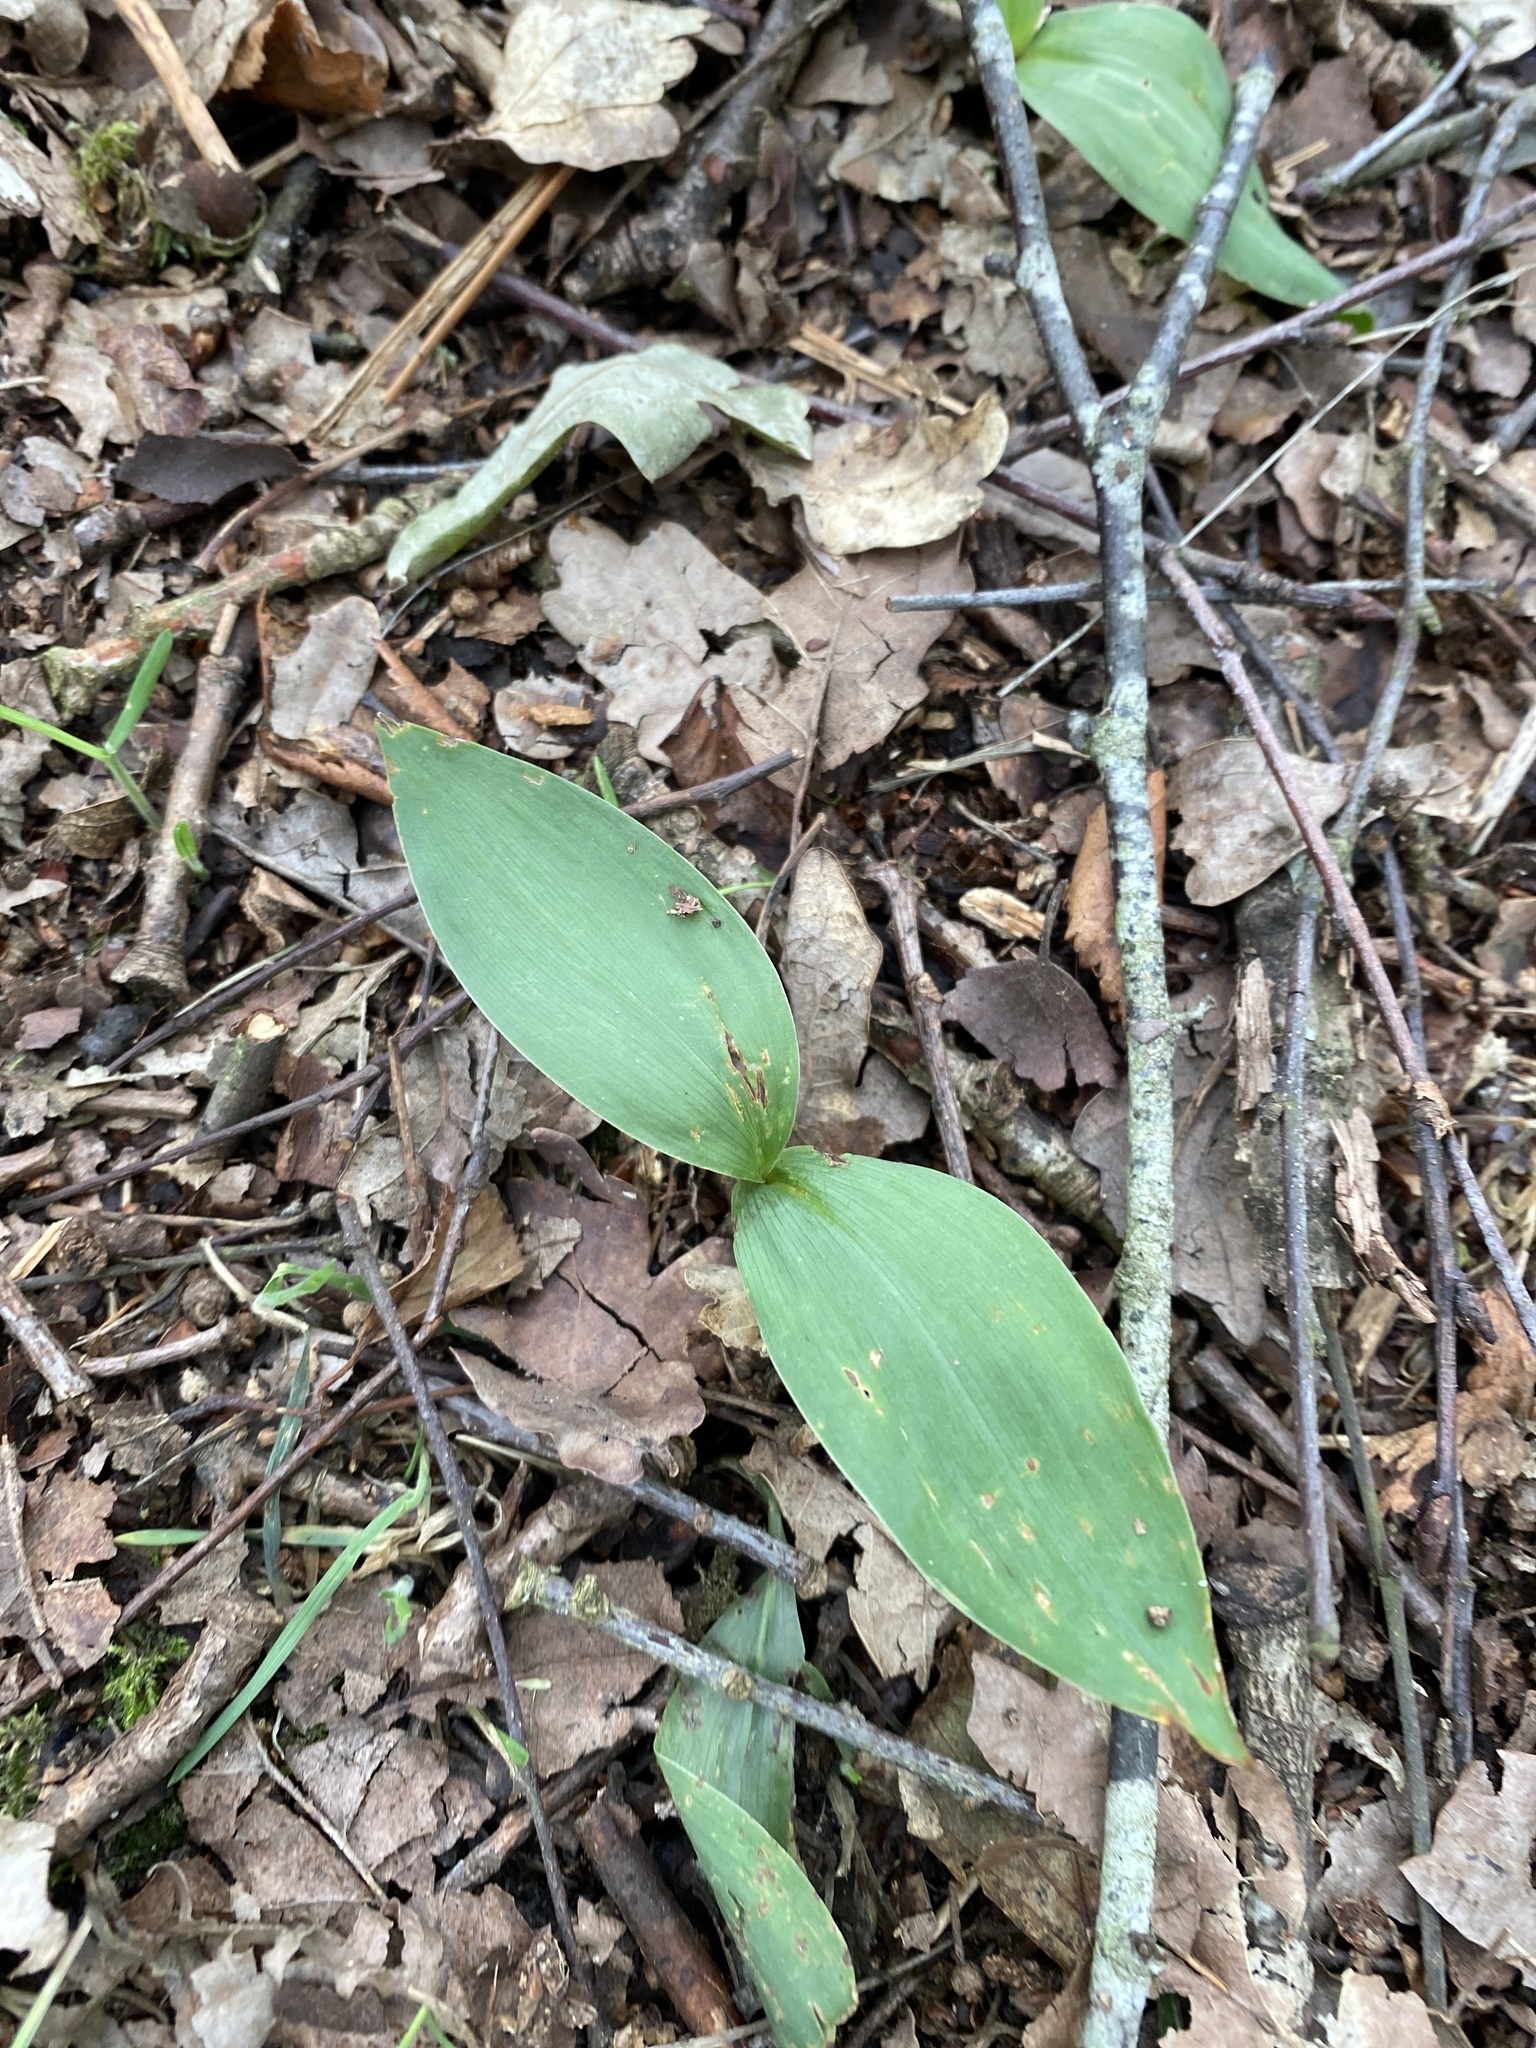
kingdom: Plantae
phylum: Tracheophyta
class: Liliopsida
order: Asparagales
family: Asparagaceae
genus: Convallaria
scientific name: Convallaria majalis
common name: Lily-of-the-valley
